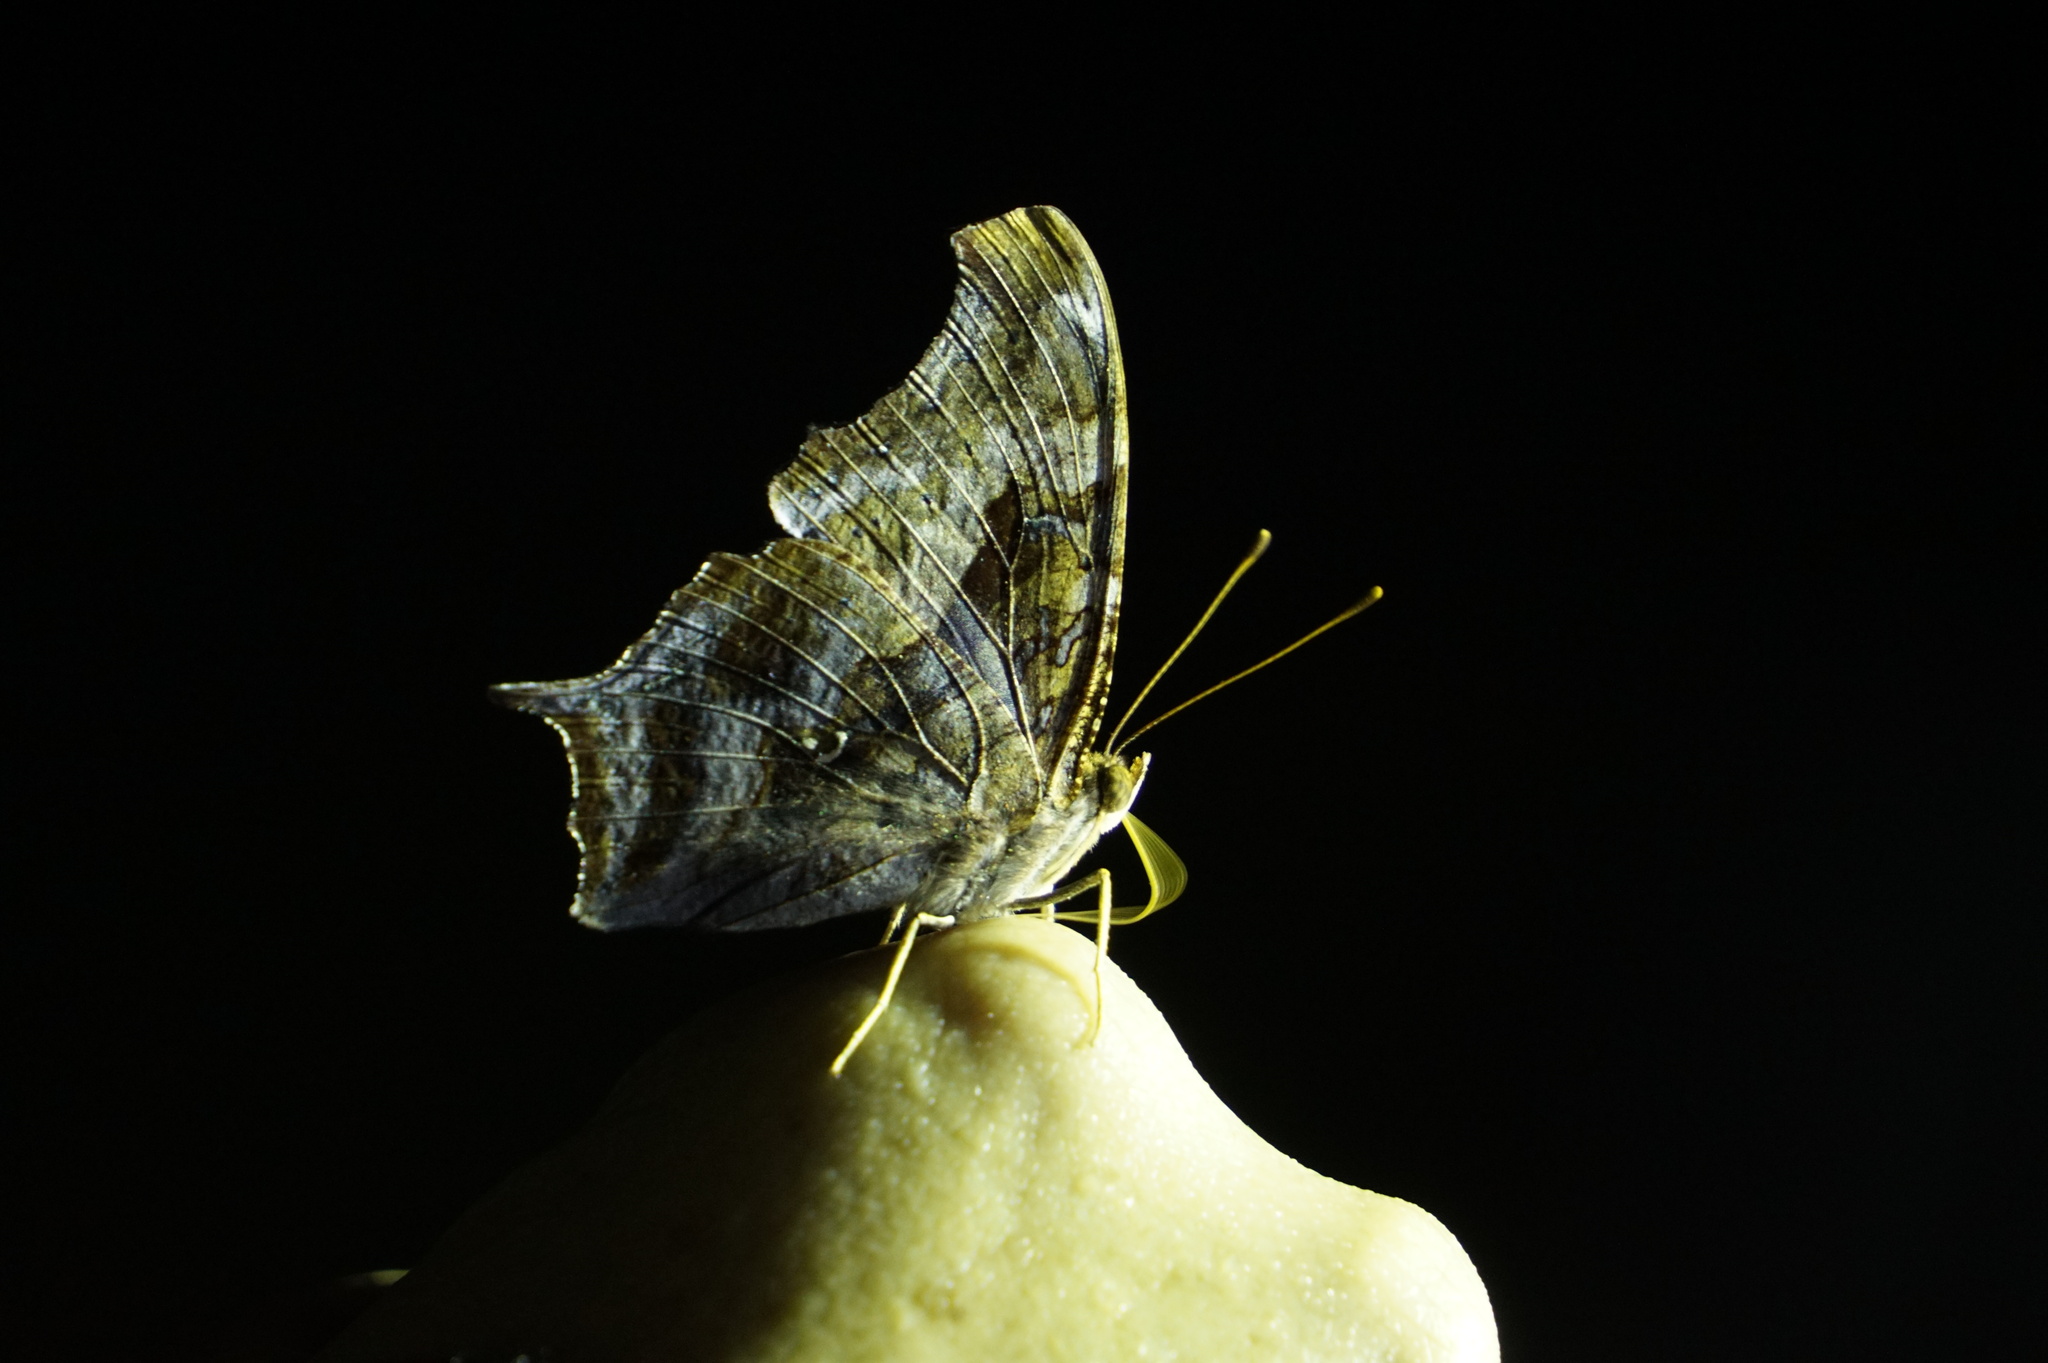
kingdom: Animalia
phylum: Arthropoda
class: Insecta
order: Lepidoptera
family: Nymphalidae
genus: Polygonia
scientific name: Polygonia interrogationis
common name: Question mark
